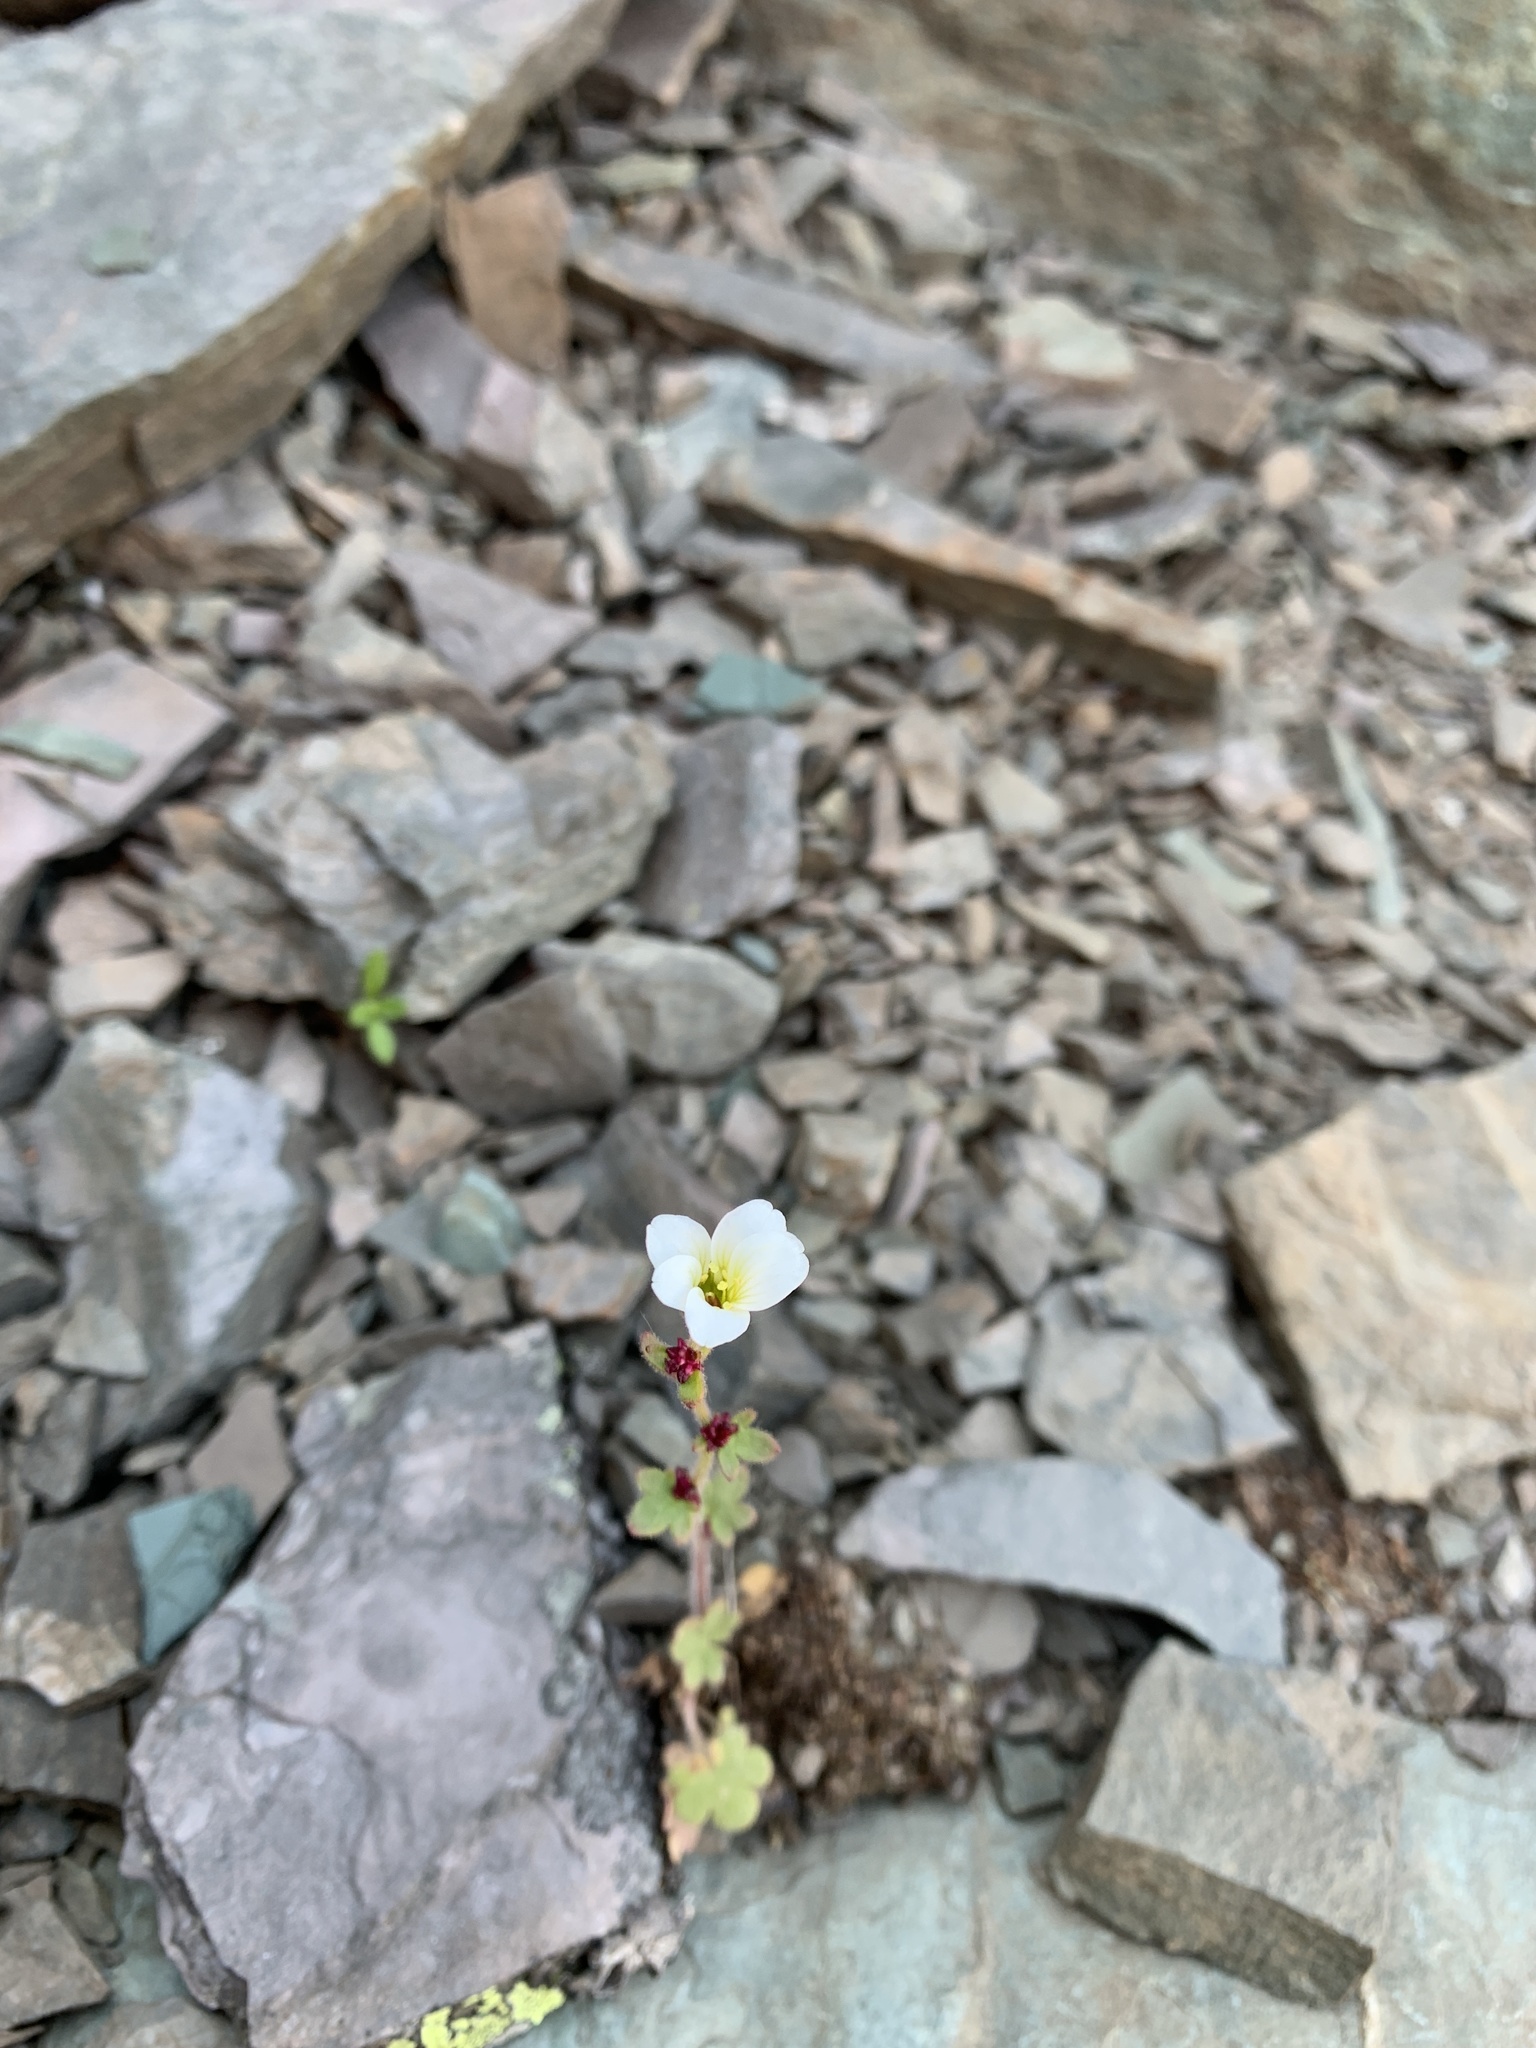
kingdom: Plantae
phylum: Tracheophyta
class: Magnoliopsida
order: Saxifragales
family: Saxifragaceae
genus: Saxifraga
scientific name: Saxifraga cernua
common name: Drooping saxifrage
